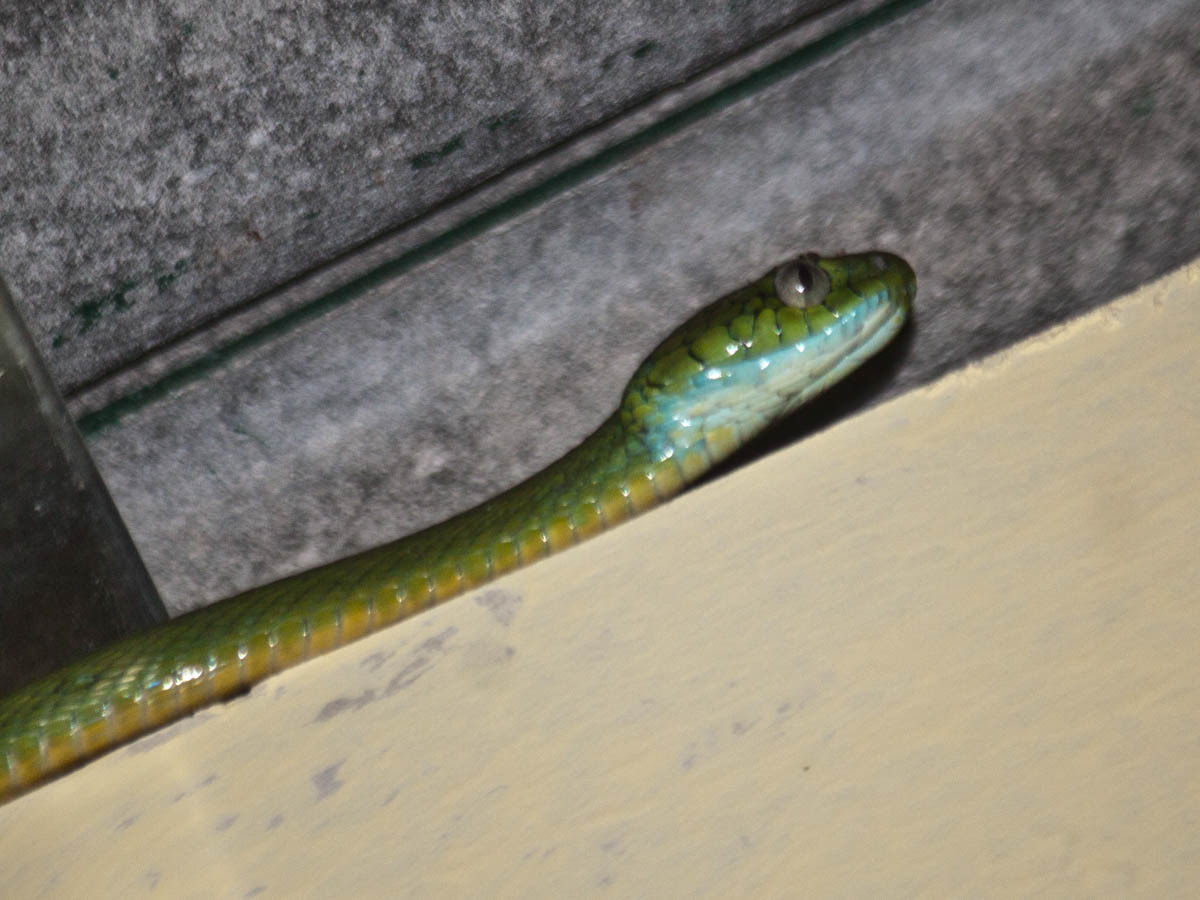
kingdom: Animalia
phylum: Chordata
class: Squamata
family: Colubridae
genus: Boiga
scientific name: Boiga cyanea
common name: Green cat snake
